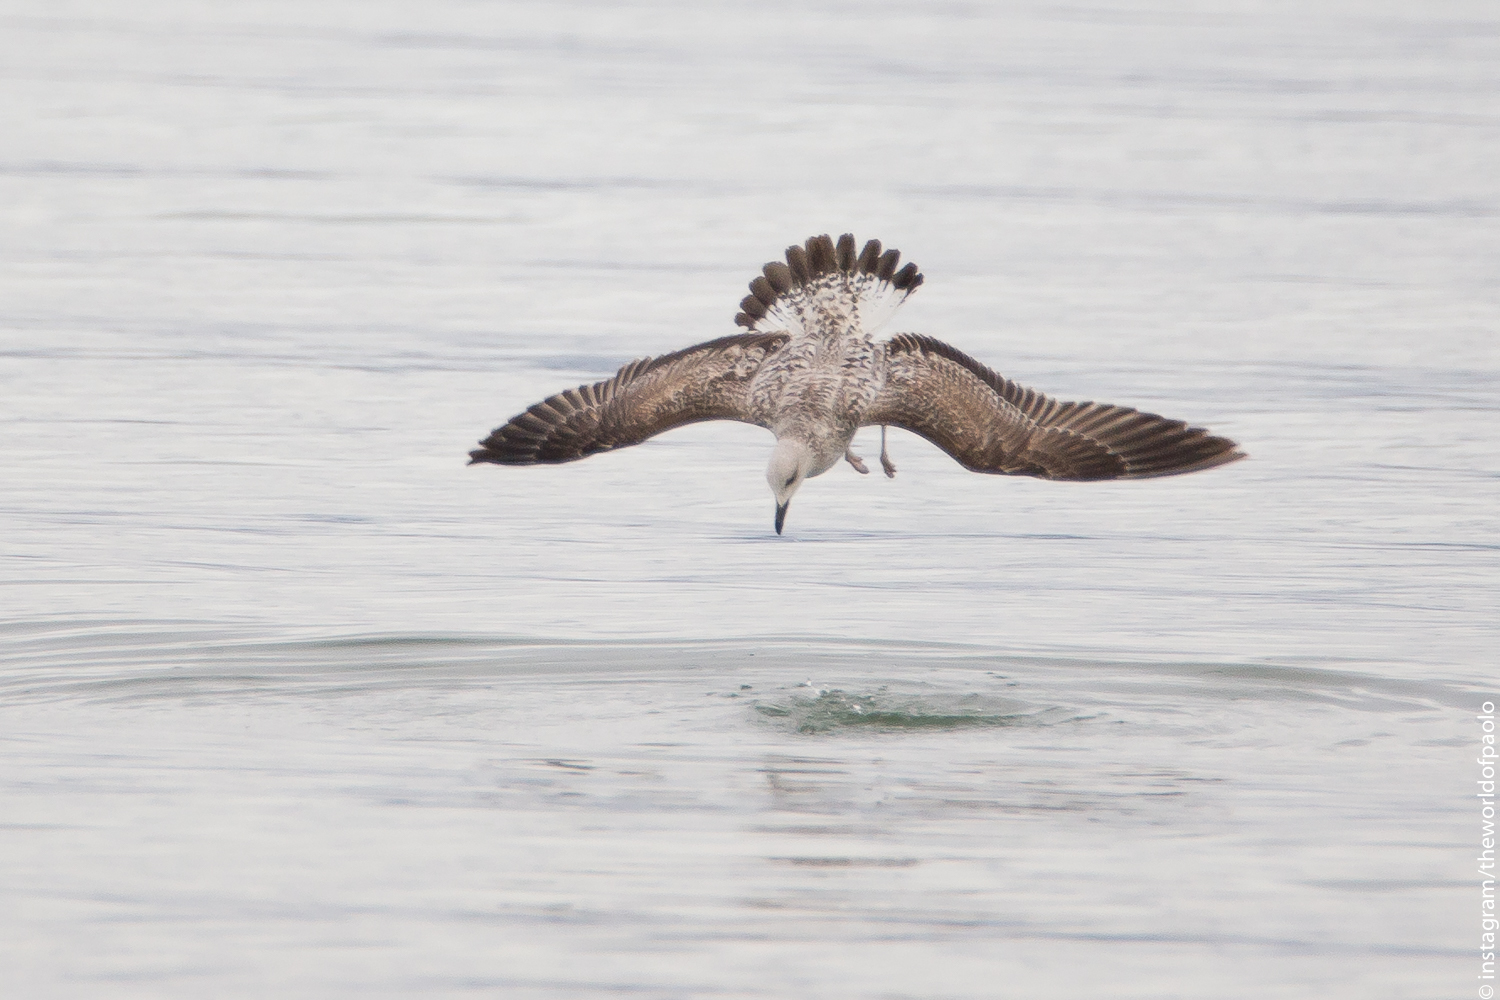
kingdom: Animalia
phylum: Chordata
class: Aves
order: Charadriiformes
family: Laridae
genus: Larus
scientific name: Larus michahellis
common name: Yellow-legged gull
